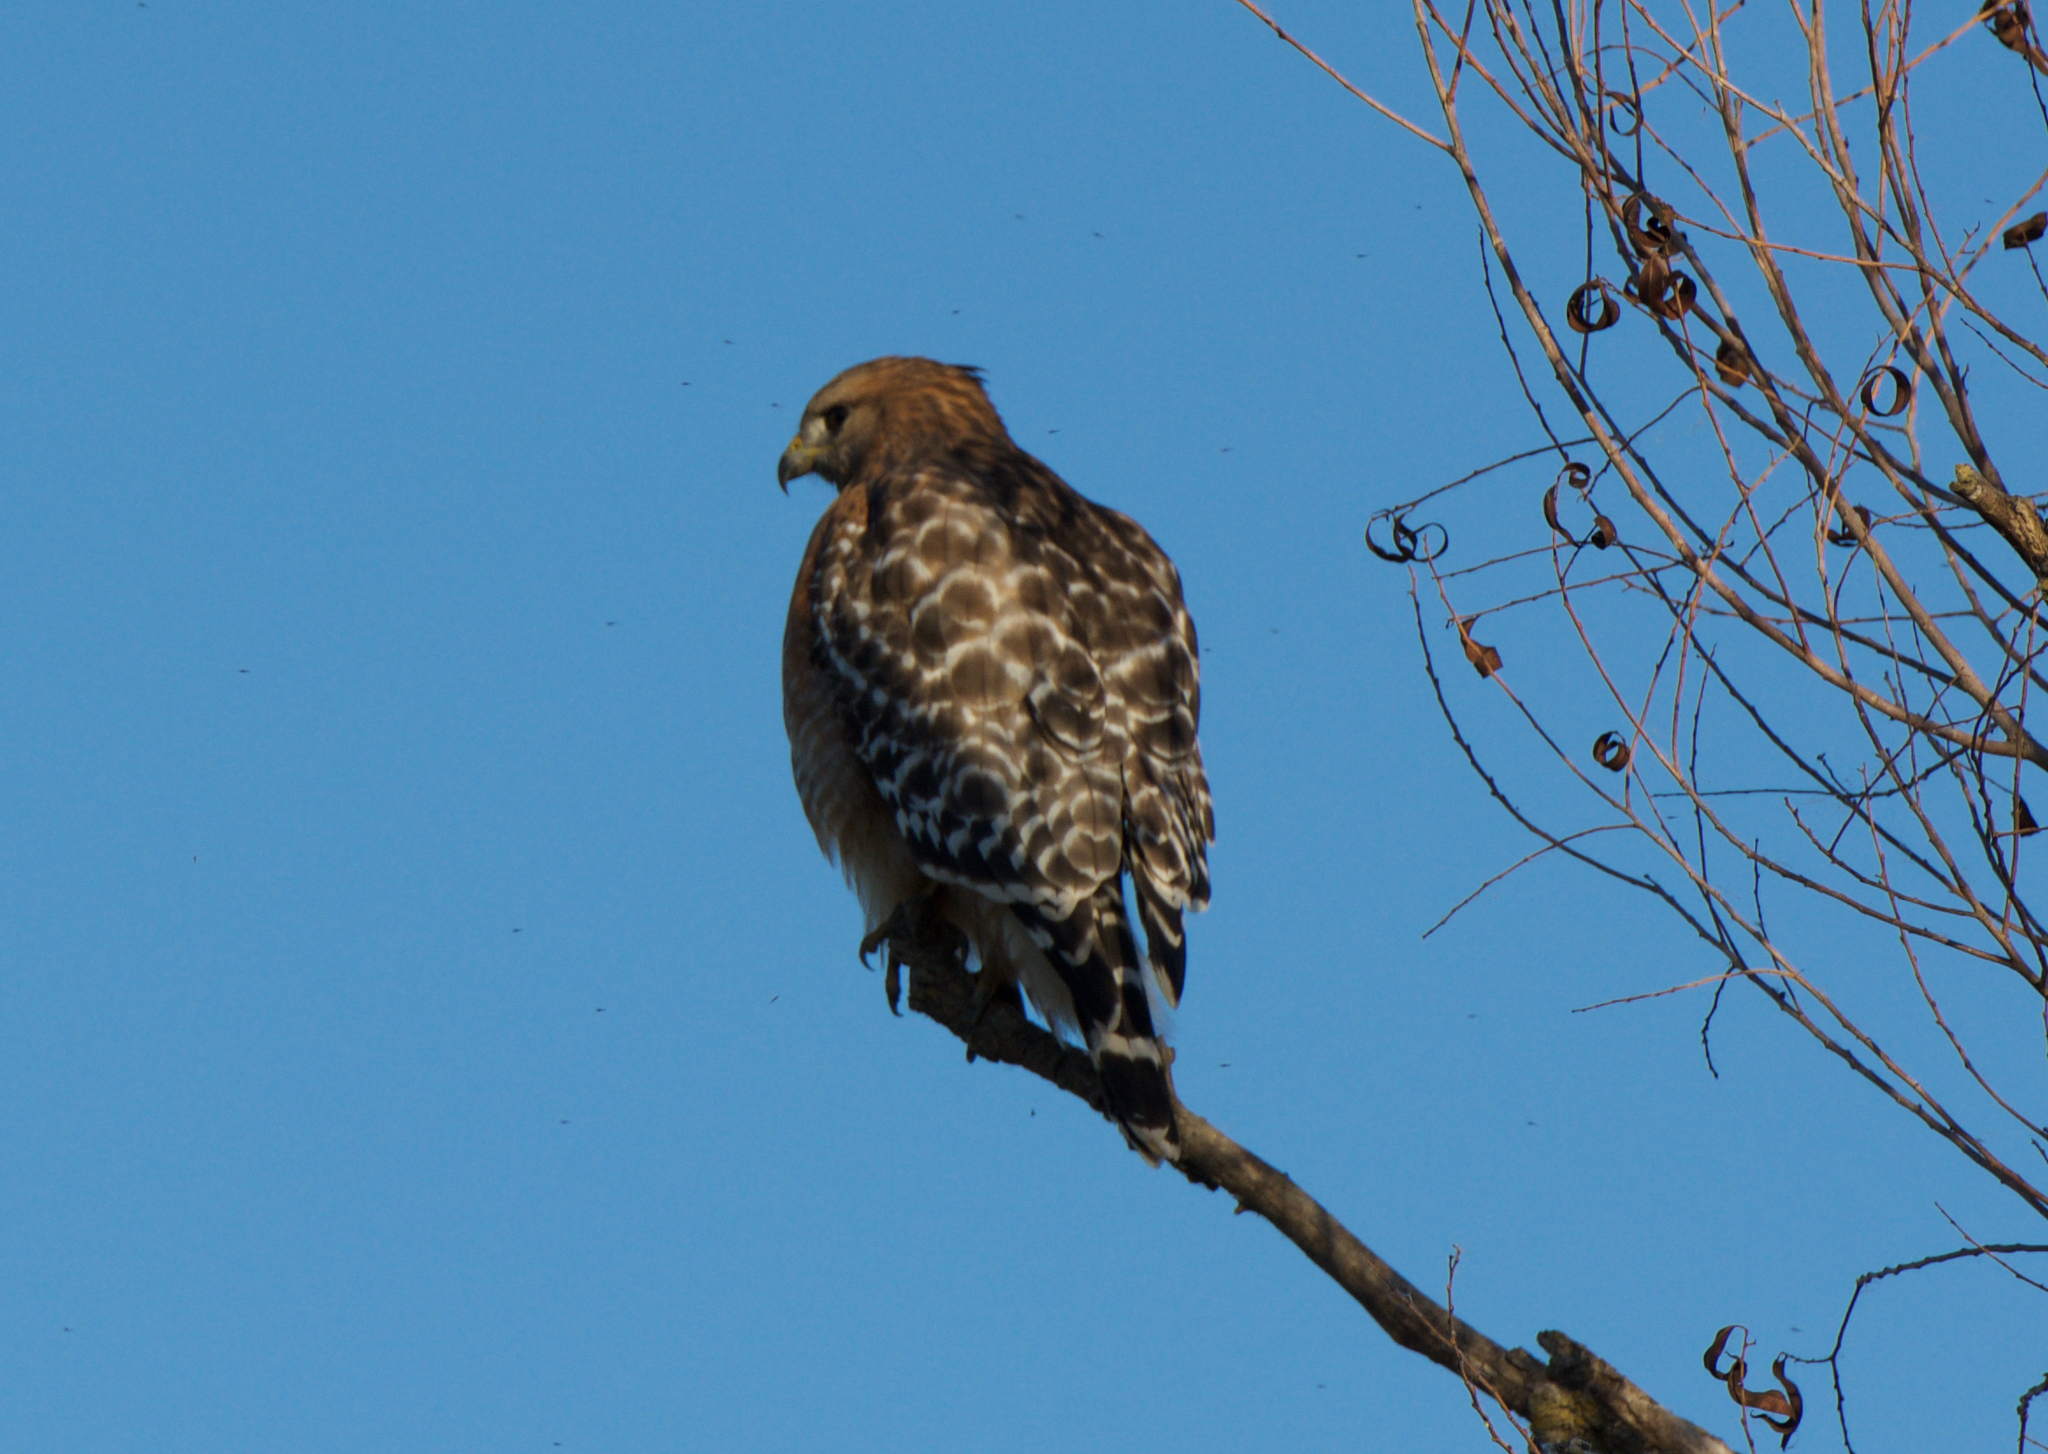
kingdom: Animalia
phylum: Chordata
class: Aves
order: Accipitriformes
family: Accipitridae
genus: Buteo
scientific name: Buteo lineatus
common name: Red-shouldered hawk
